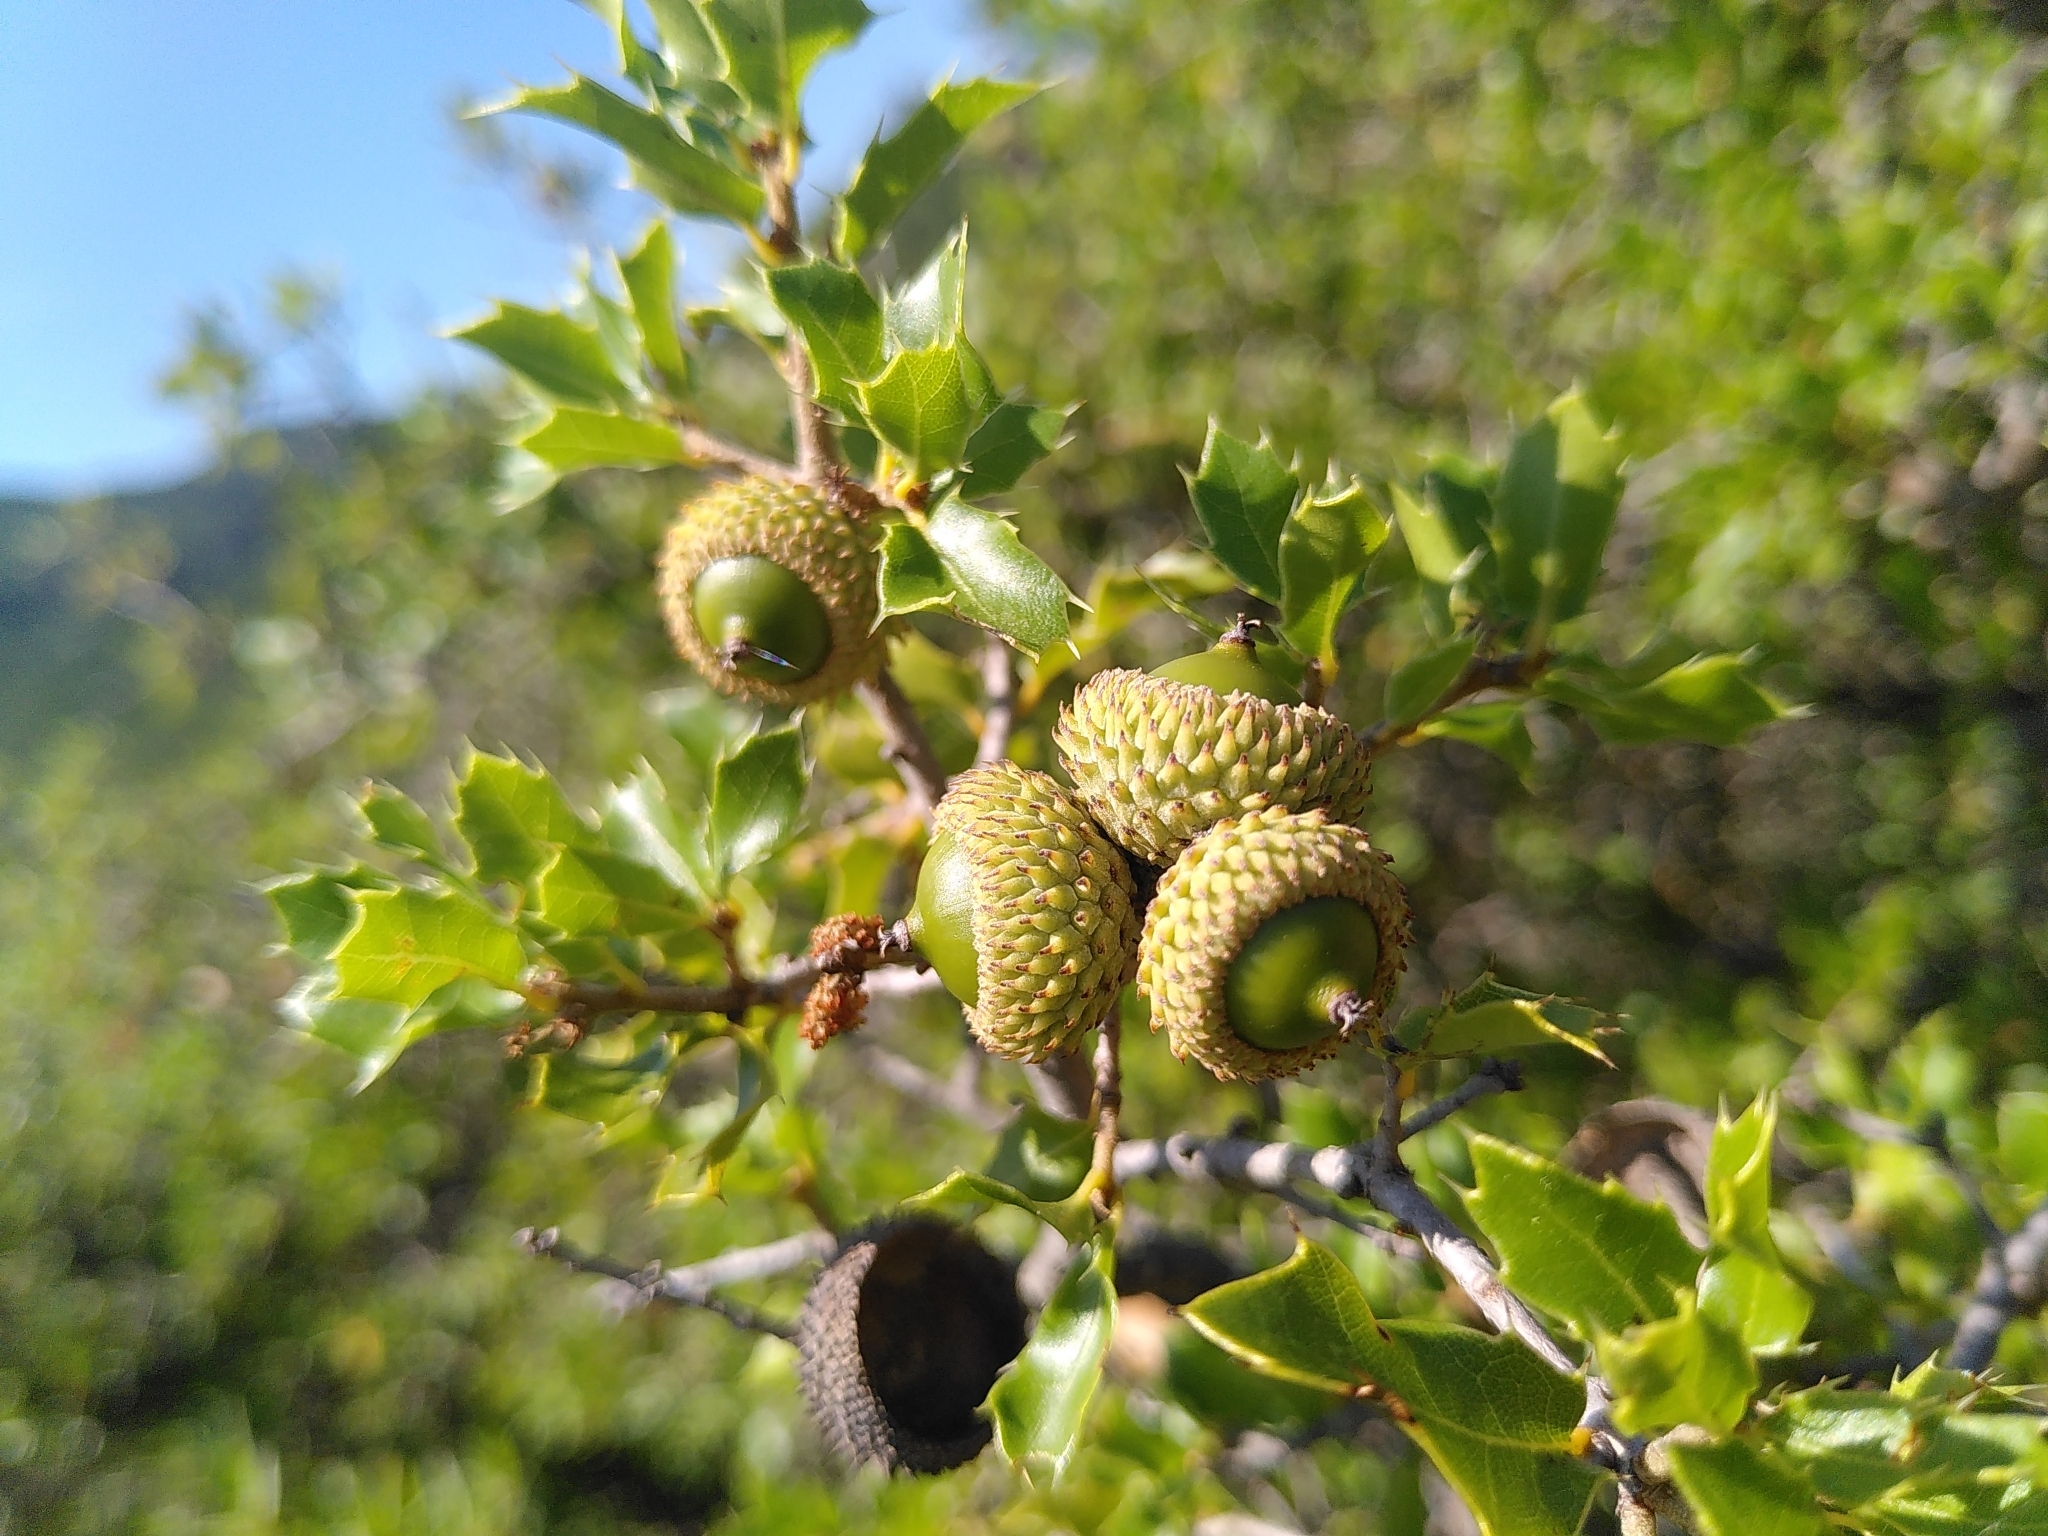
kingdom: Plantae
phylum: Tracheophyta
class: Magnoliopsida
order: Fagales
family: Fagaceae
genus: Quercus
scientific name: Quercus coccifera
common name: Kermes oak
